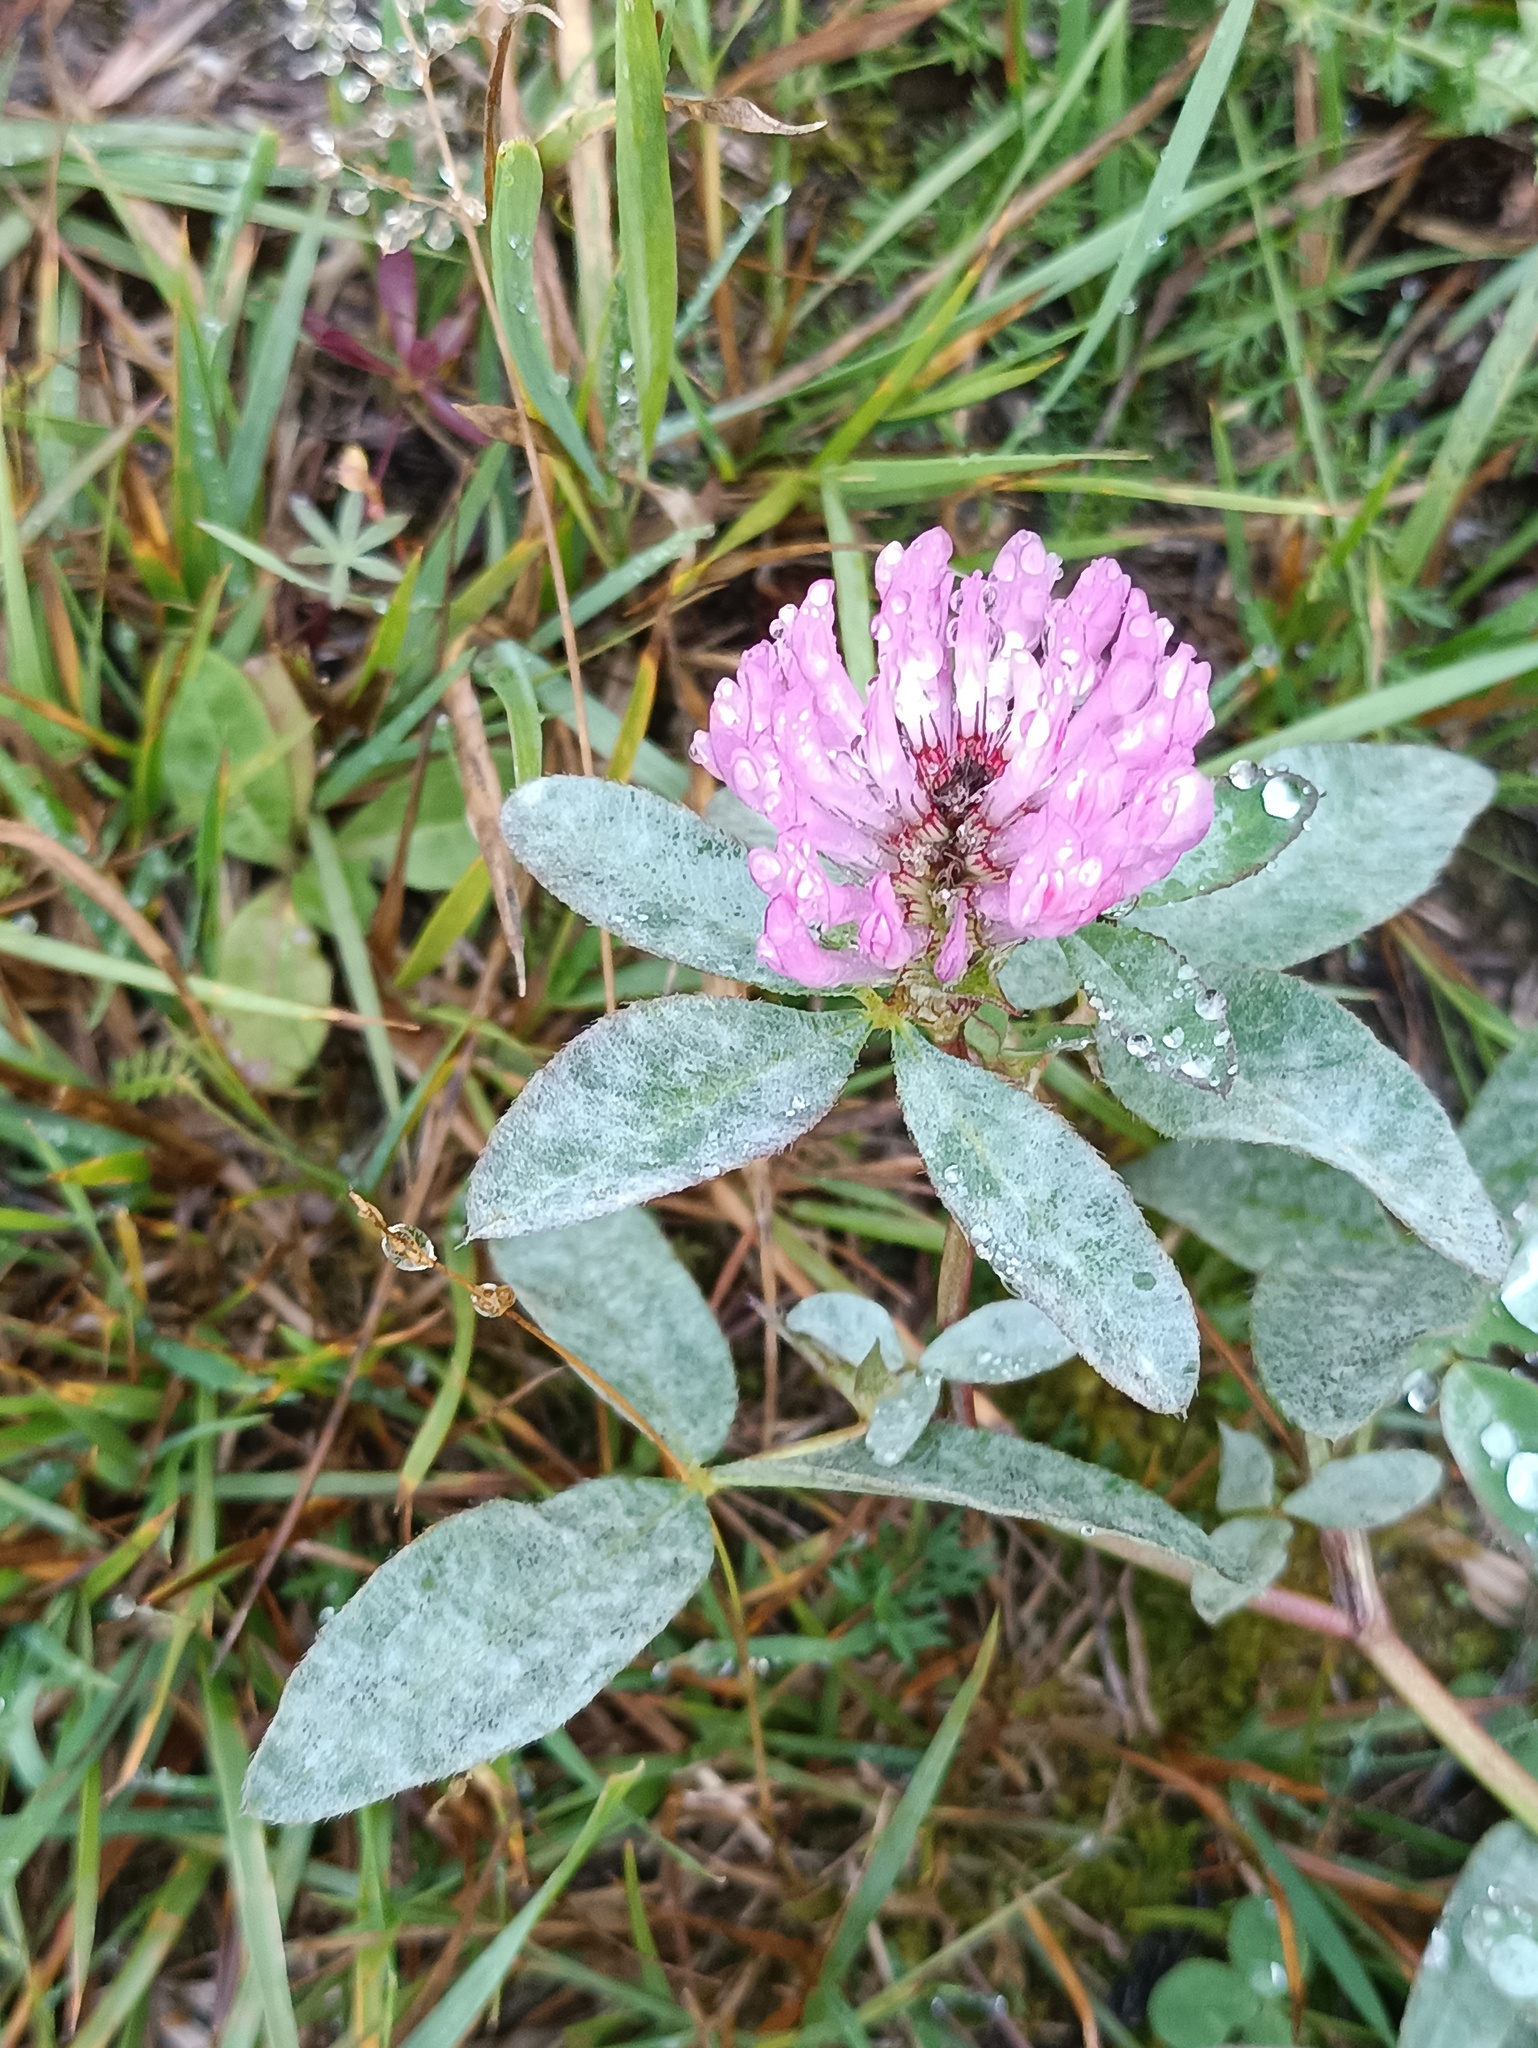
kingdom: Plantae
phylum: Tracheophyta
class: Magnoliopsida
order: Fabales
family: Fabaceae
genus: Trifolium
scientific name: Trifolium medium
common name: Zigzag clover
